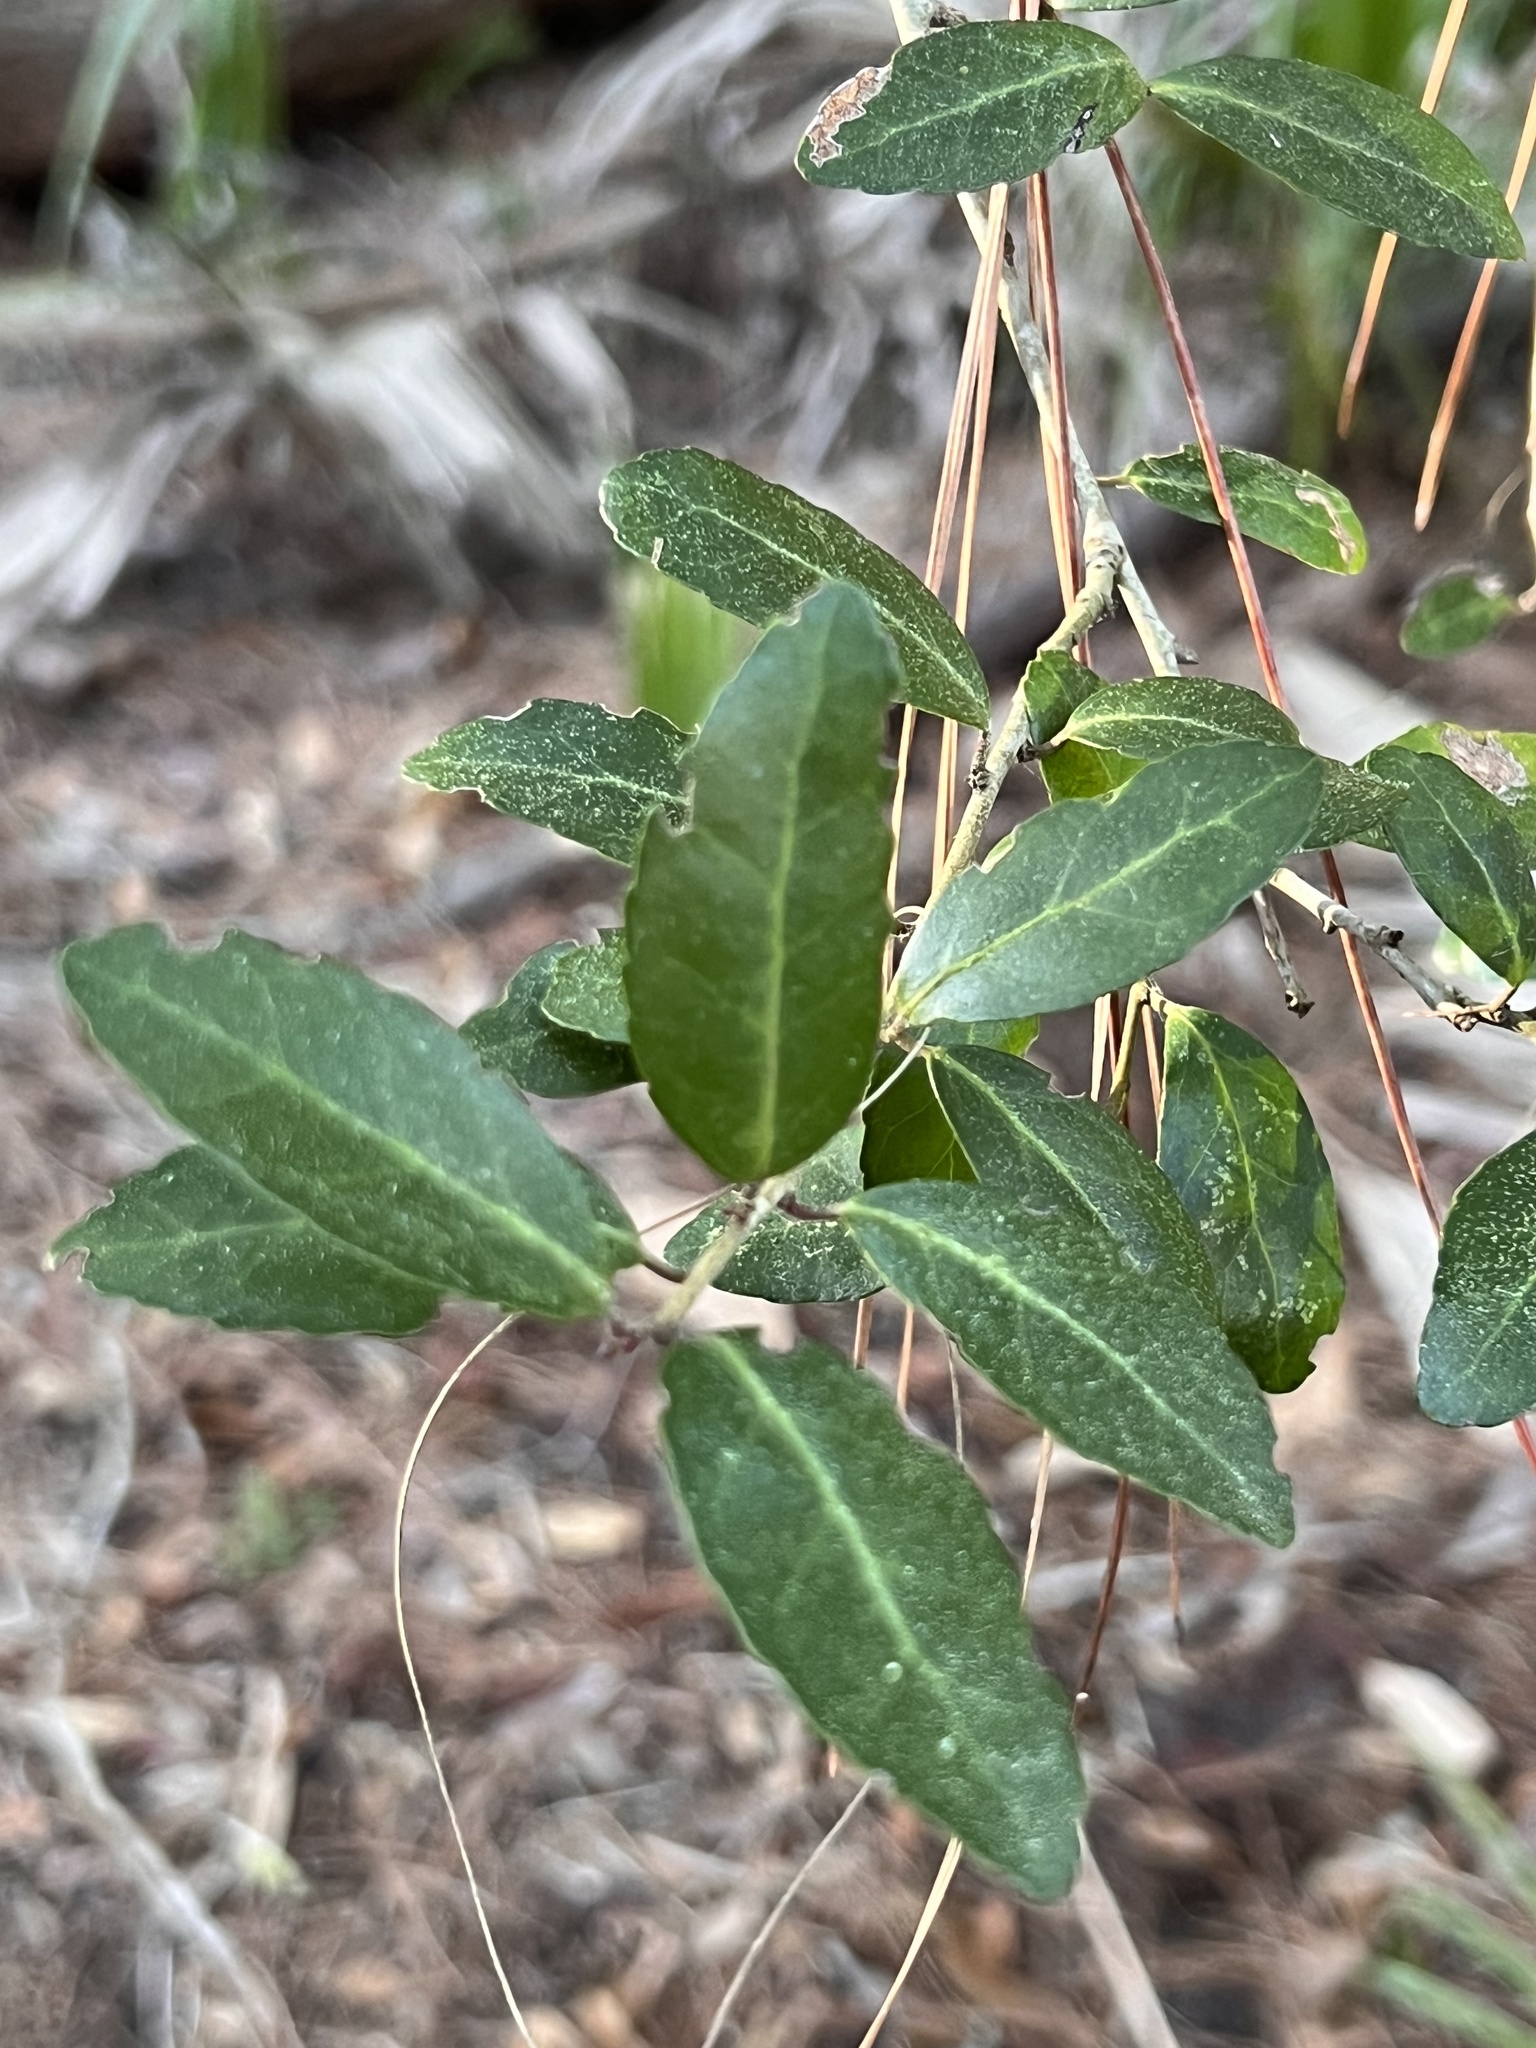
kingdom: Plantae
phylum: Tracheophyta
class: Magnoliopsida
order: Aquifoliales
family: Aquifoliaceae
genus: Ilex
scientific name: Ilex vomitoria
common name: Yaupon holly
